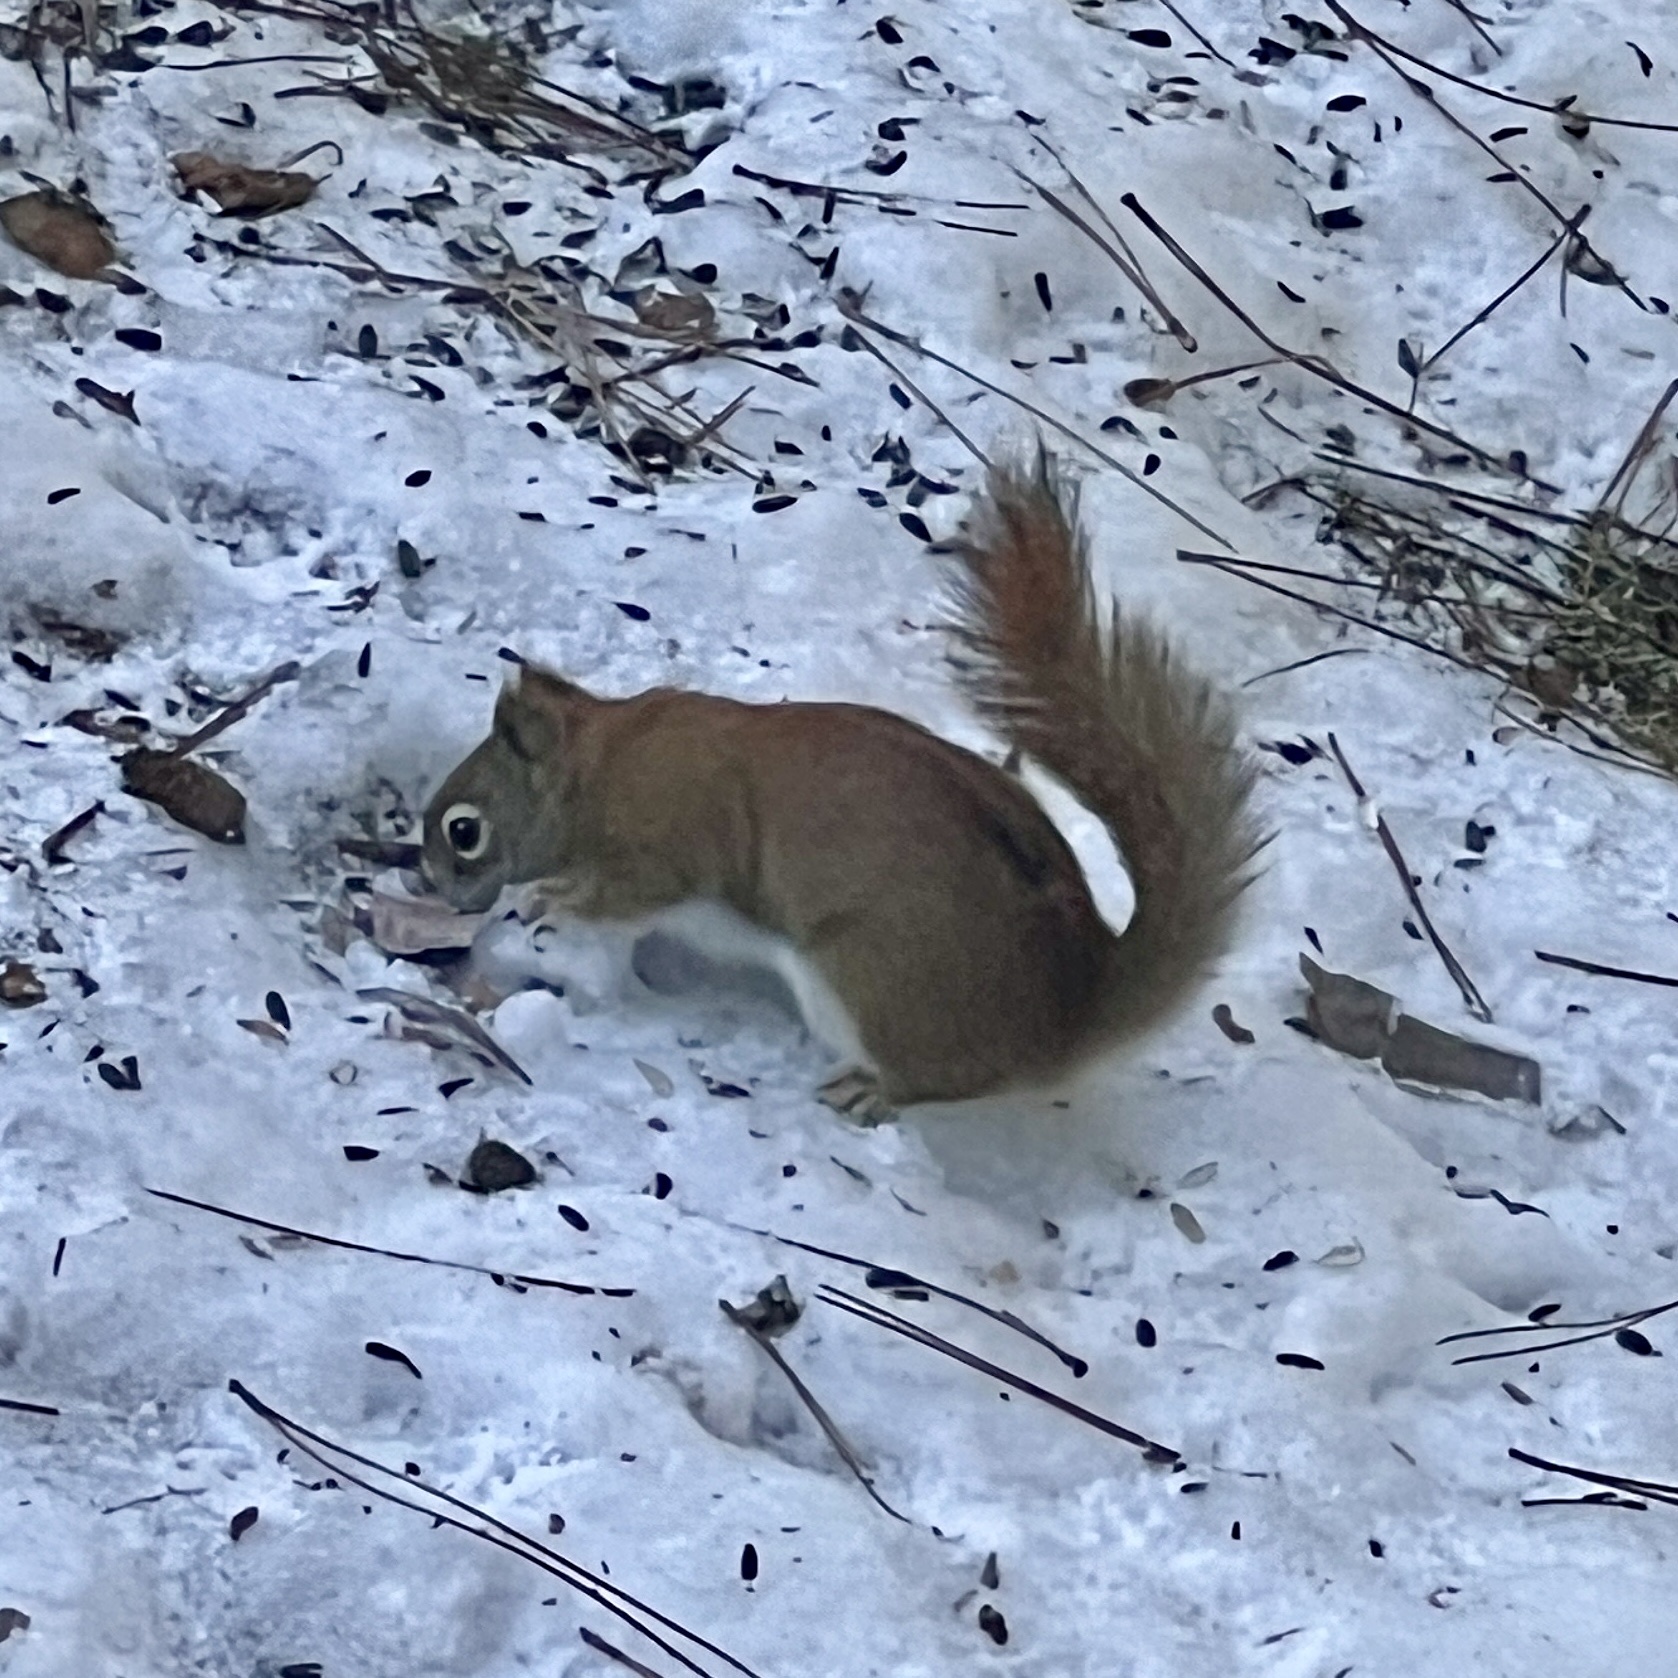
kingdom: Animalia
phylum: Chordata
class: Mammalia
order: Rodentia
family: Sciuridae
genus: Tamiasciurus
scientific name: Tamiasciurus hudsonicus
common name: Red squirrel
